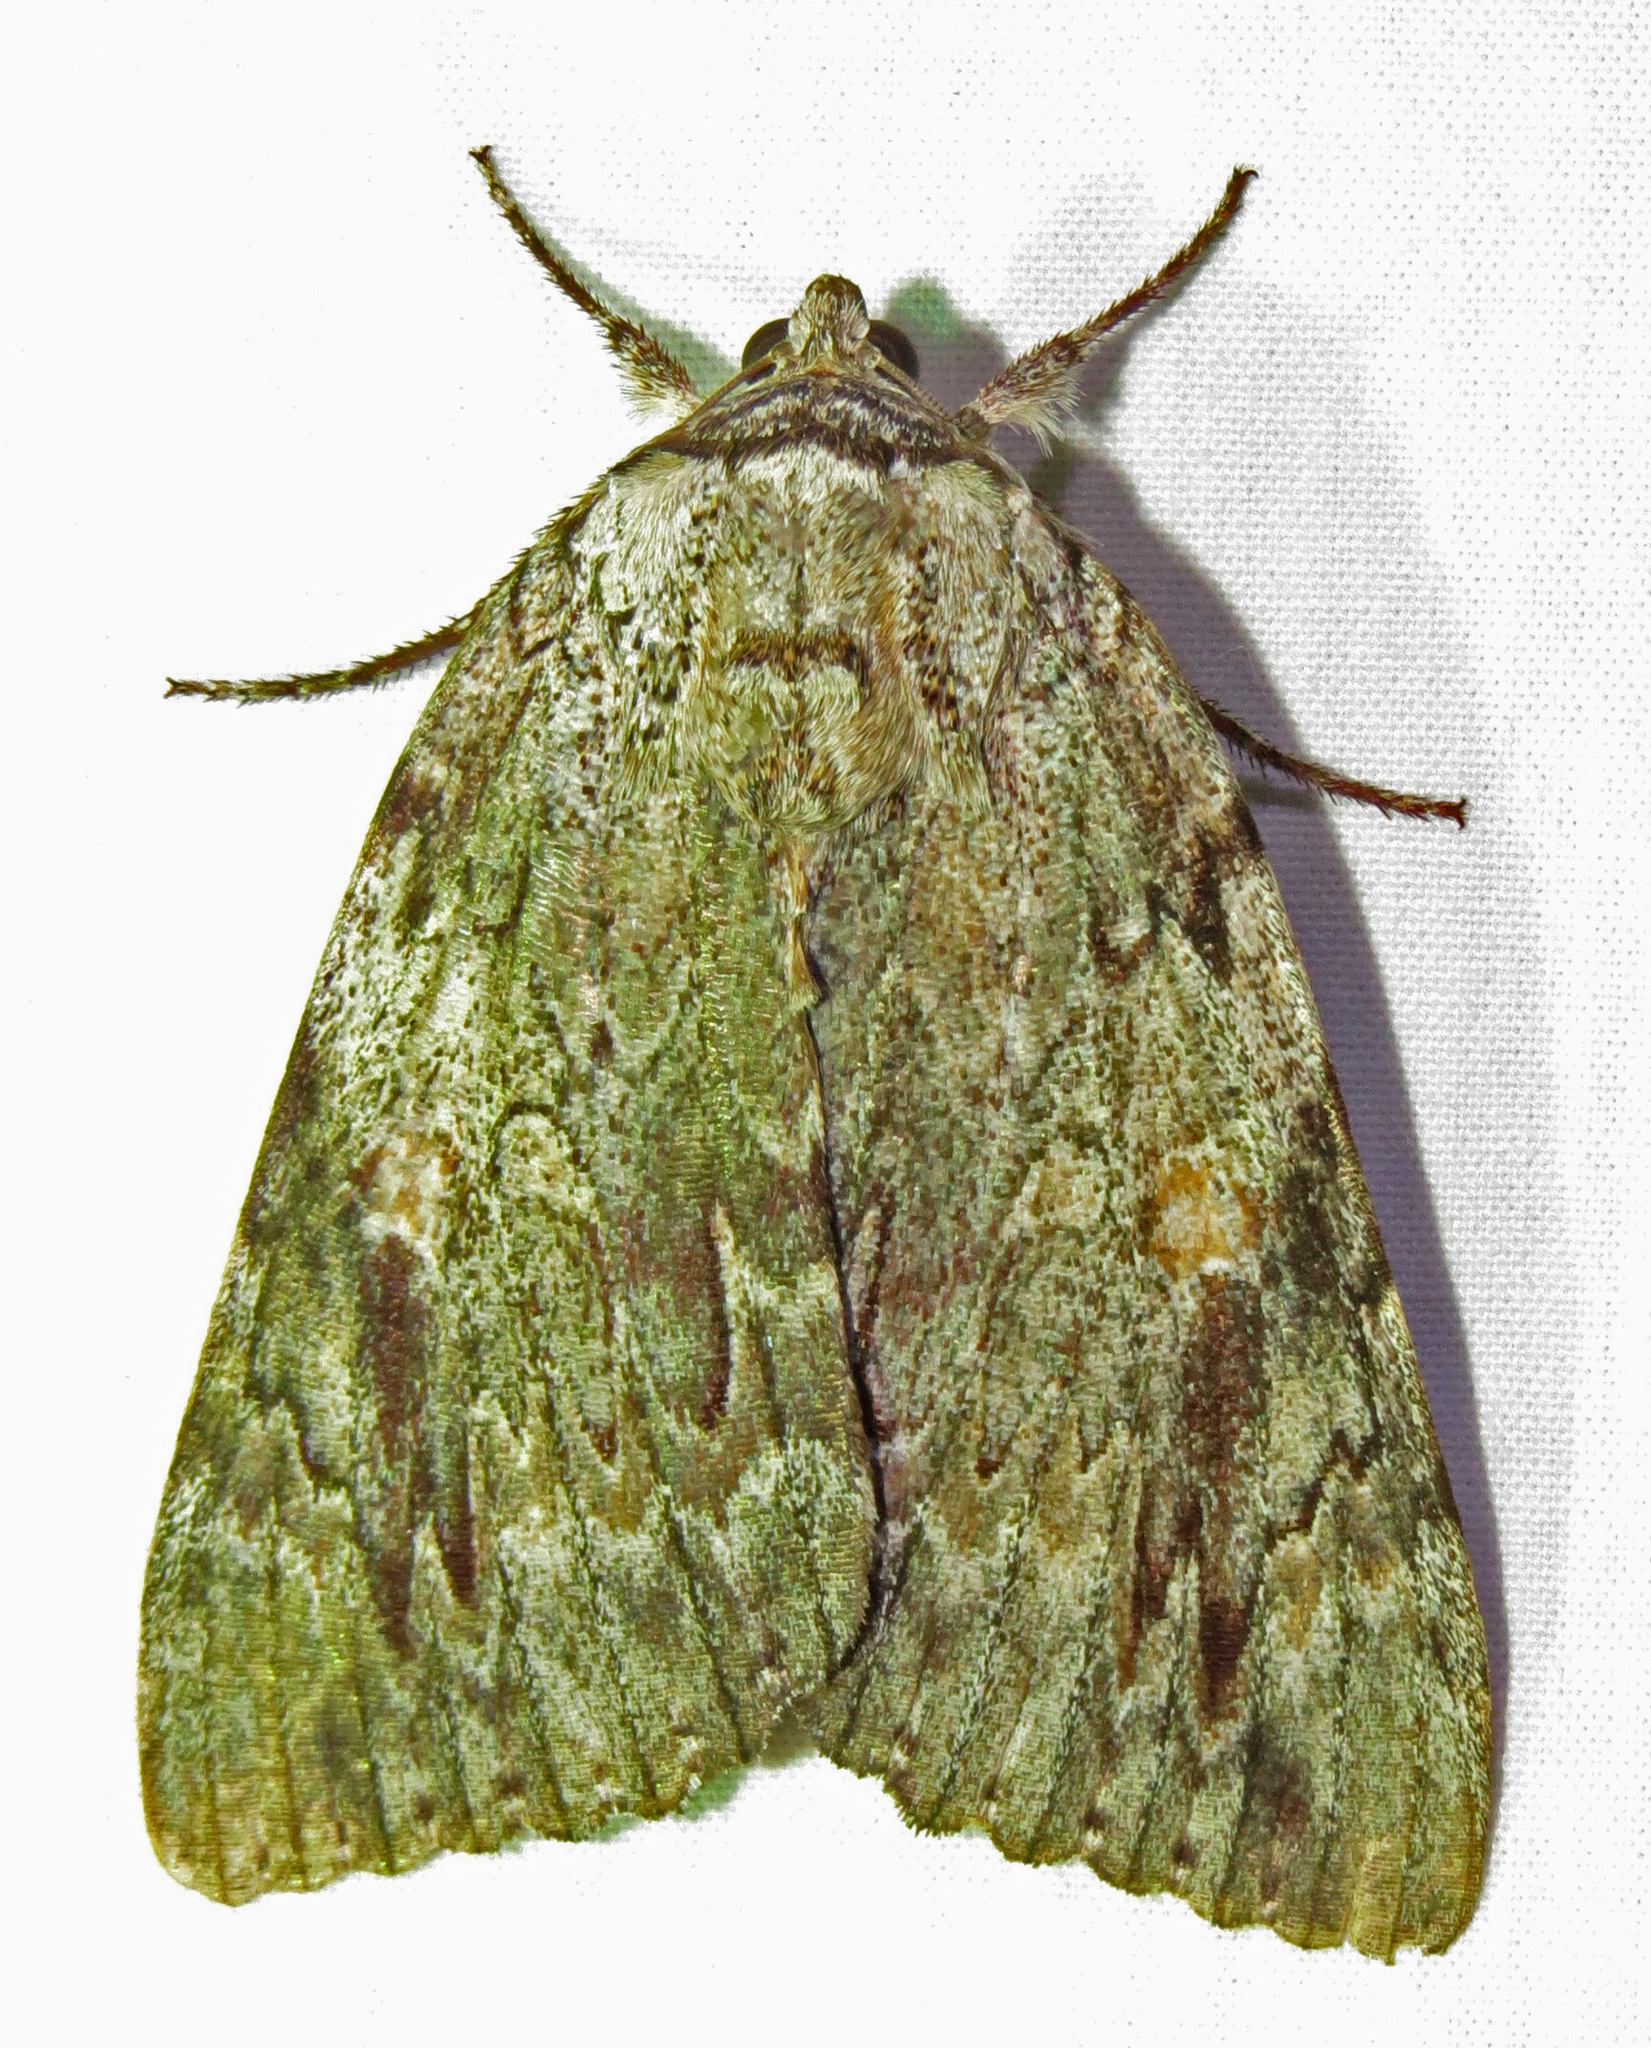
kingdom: Animalia
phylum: Arthropoda
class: Insecta
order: Lepidoptera
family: Erebidae
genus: Catocala
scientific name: Catocala maestosa
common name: Sad underwing
